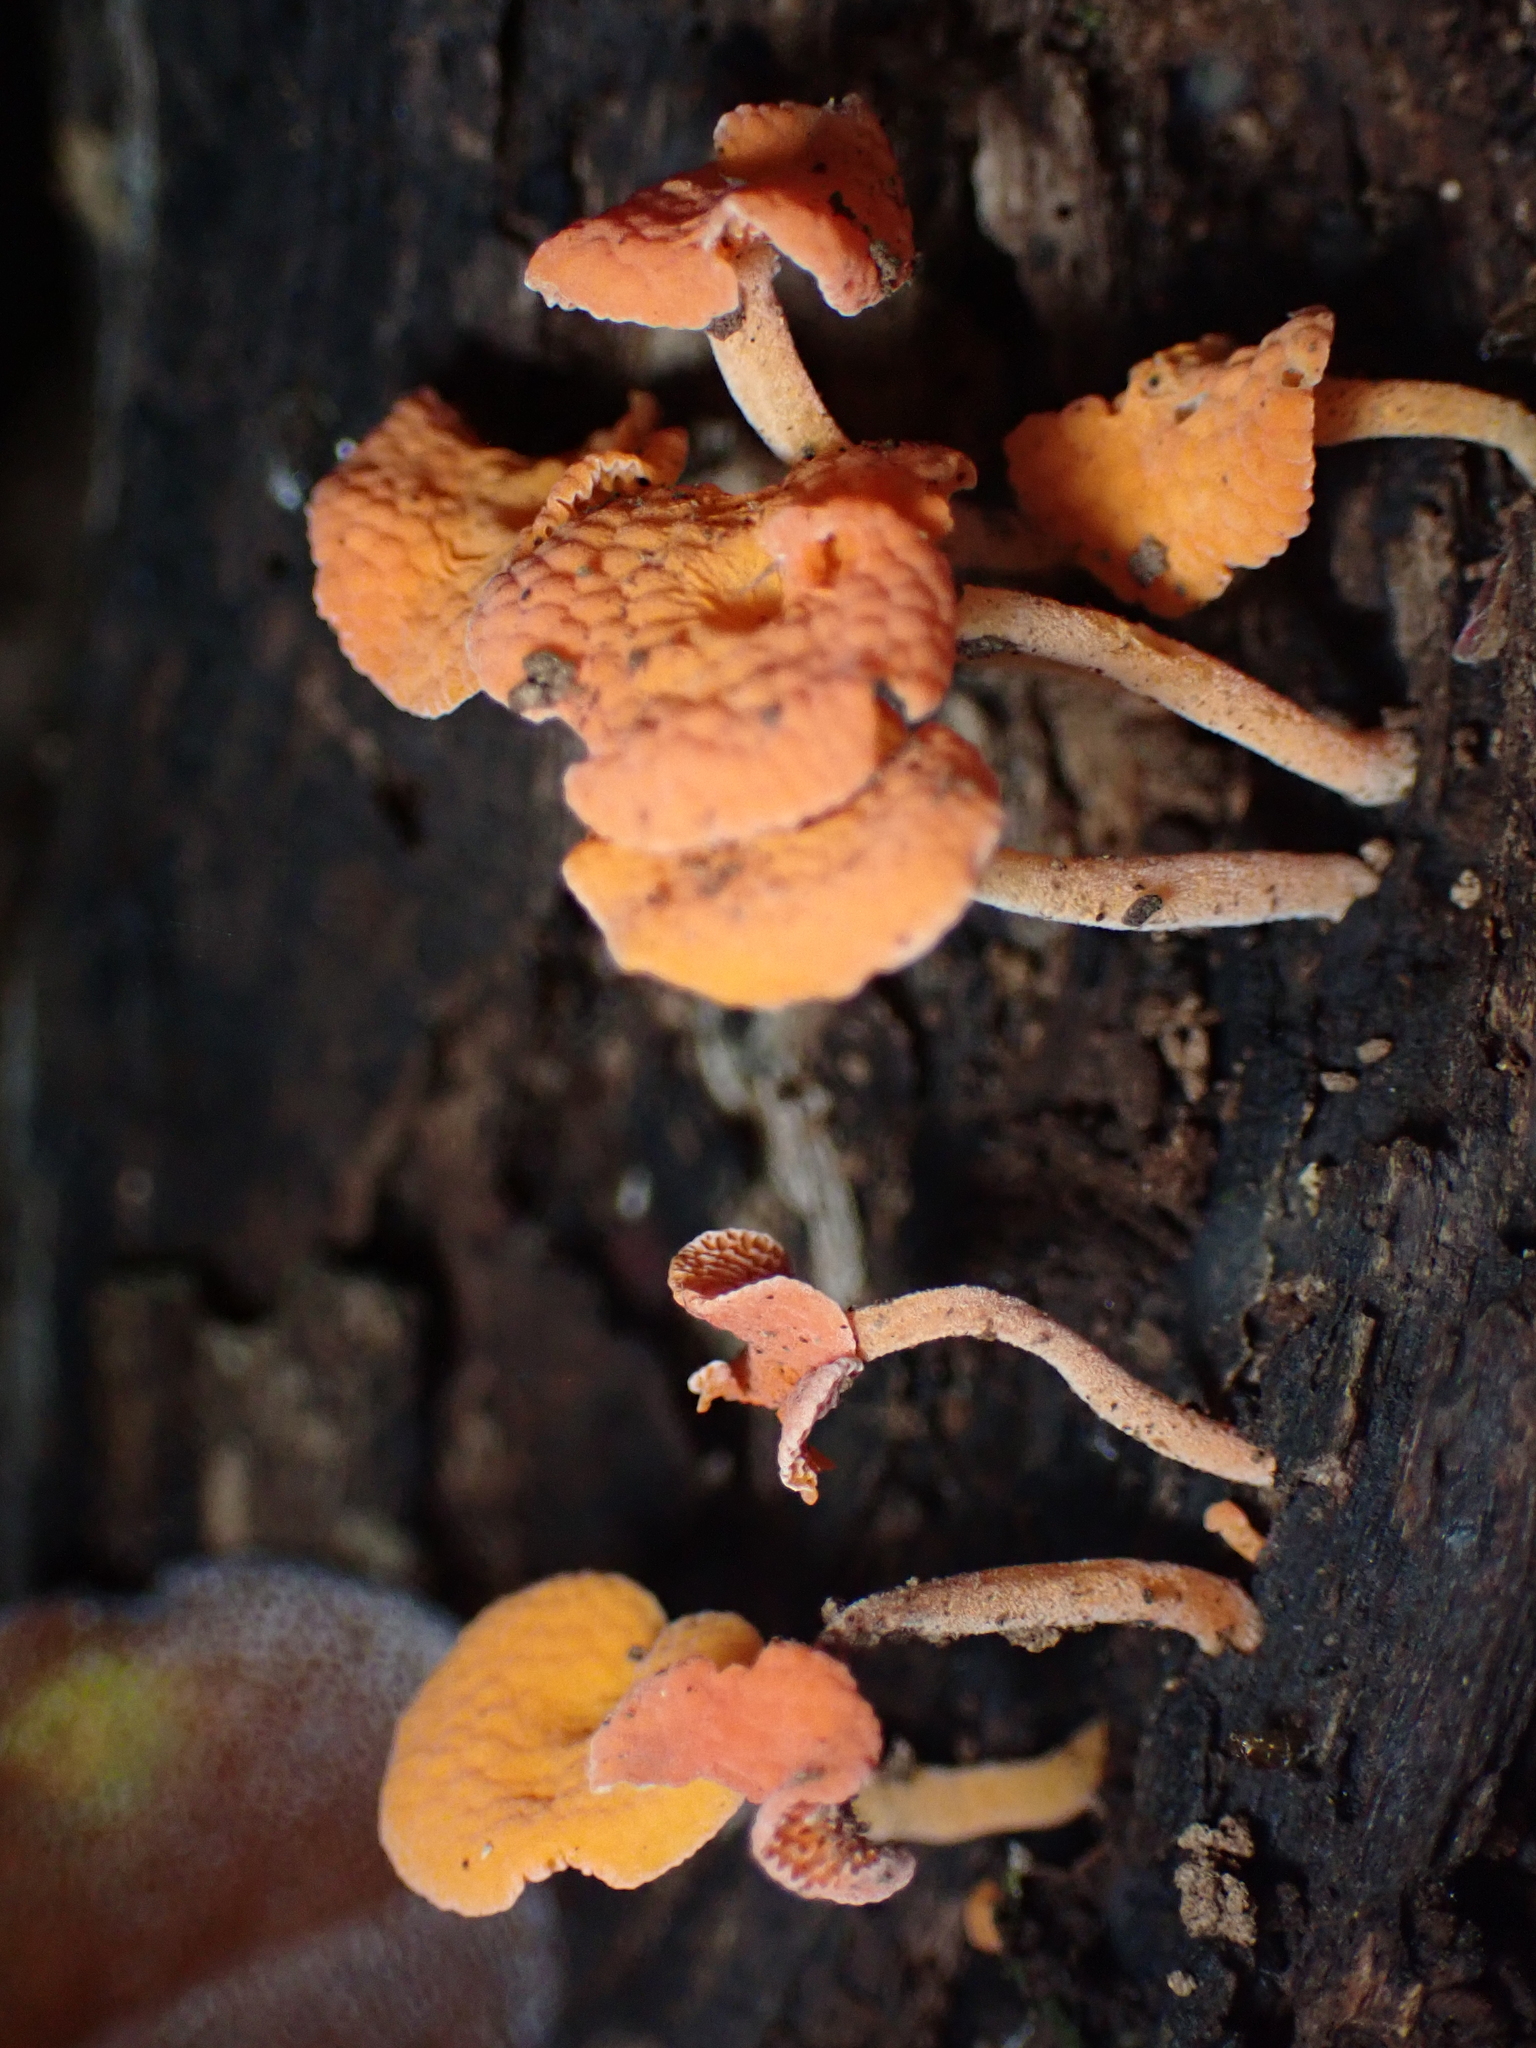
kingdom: Fungi
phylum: Basidiomycota
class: Agaricomycetes
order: Agaricales
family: Mycenaceae
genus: Favolaschia
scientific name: Favolaschia claudopus
